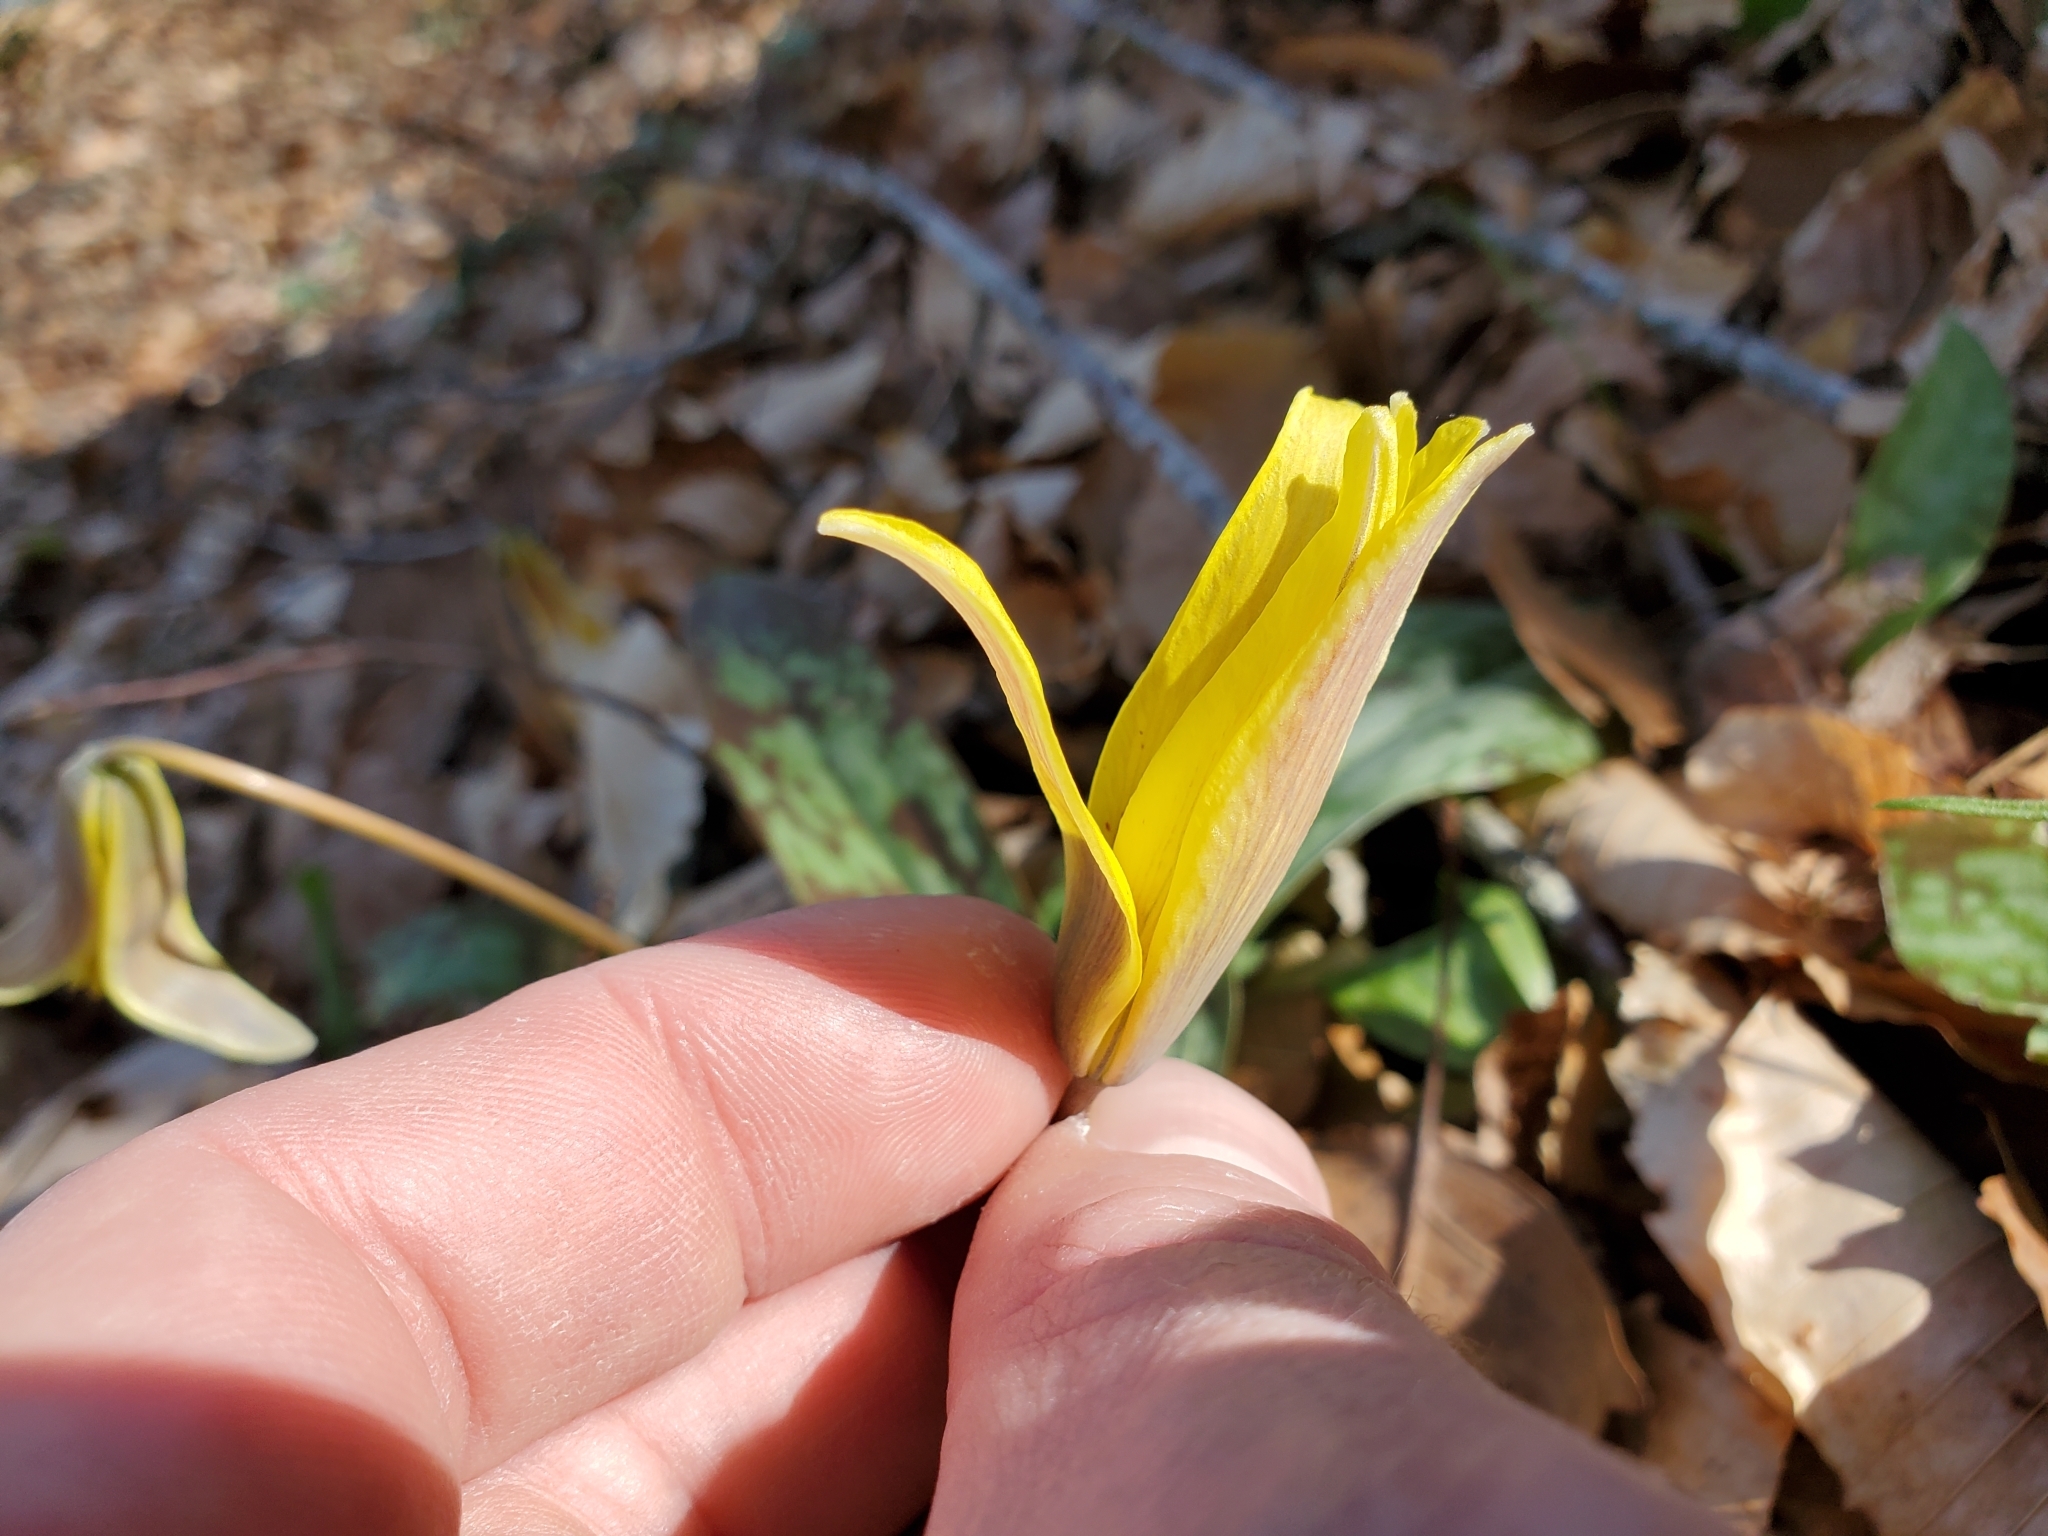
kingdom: Plantae
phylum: Tracheophyta
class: Liliopsida
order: Liliales
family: Liliaceae
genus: Erythronium
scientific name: Erythronium americanum
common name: Yellow adder's-tongue
